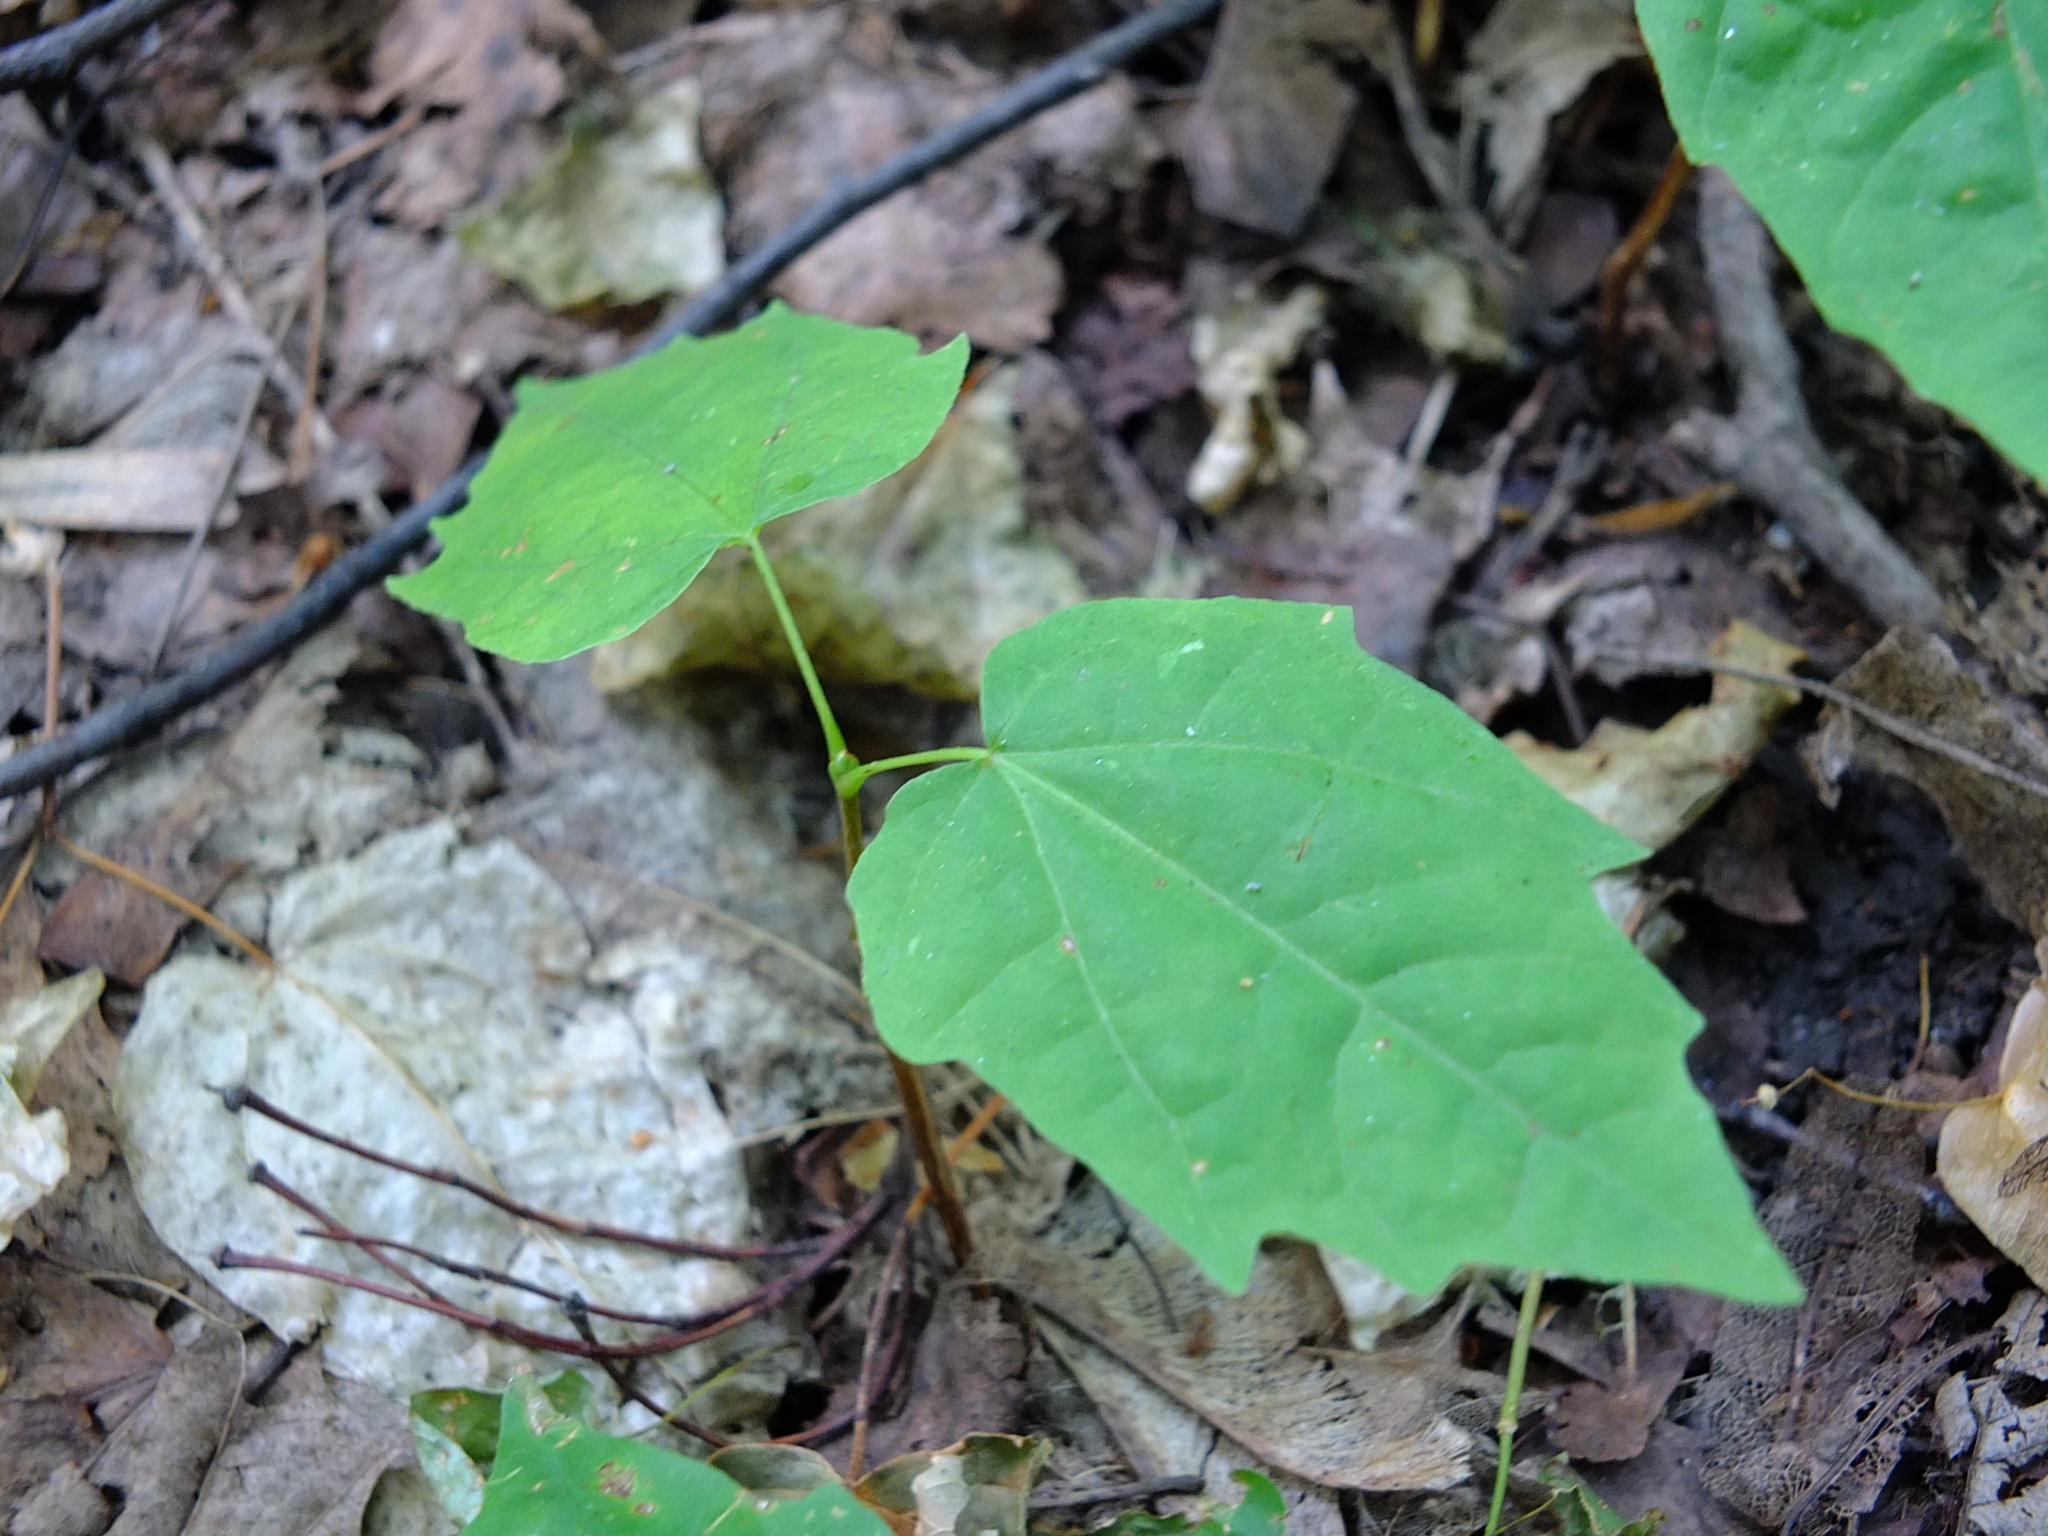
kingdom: Plantae
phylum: Tracheophyta
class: Magnoliopsida
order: Sapindales
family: Sapindaceae
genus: Acer
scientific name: Acer platanoides
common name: Norway maple
